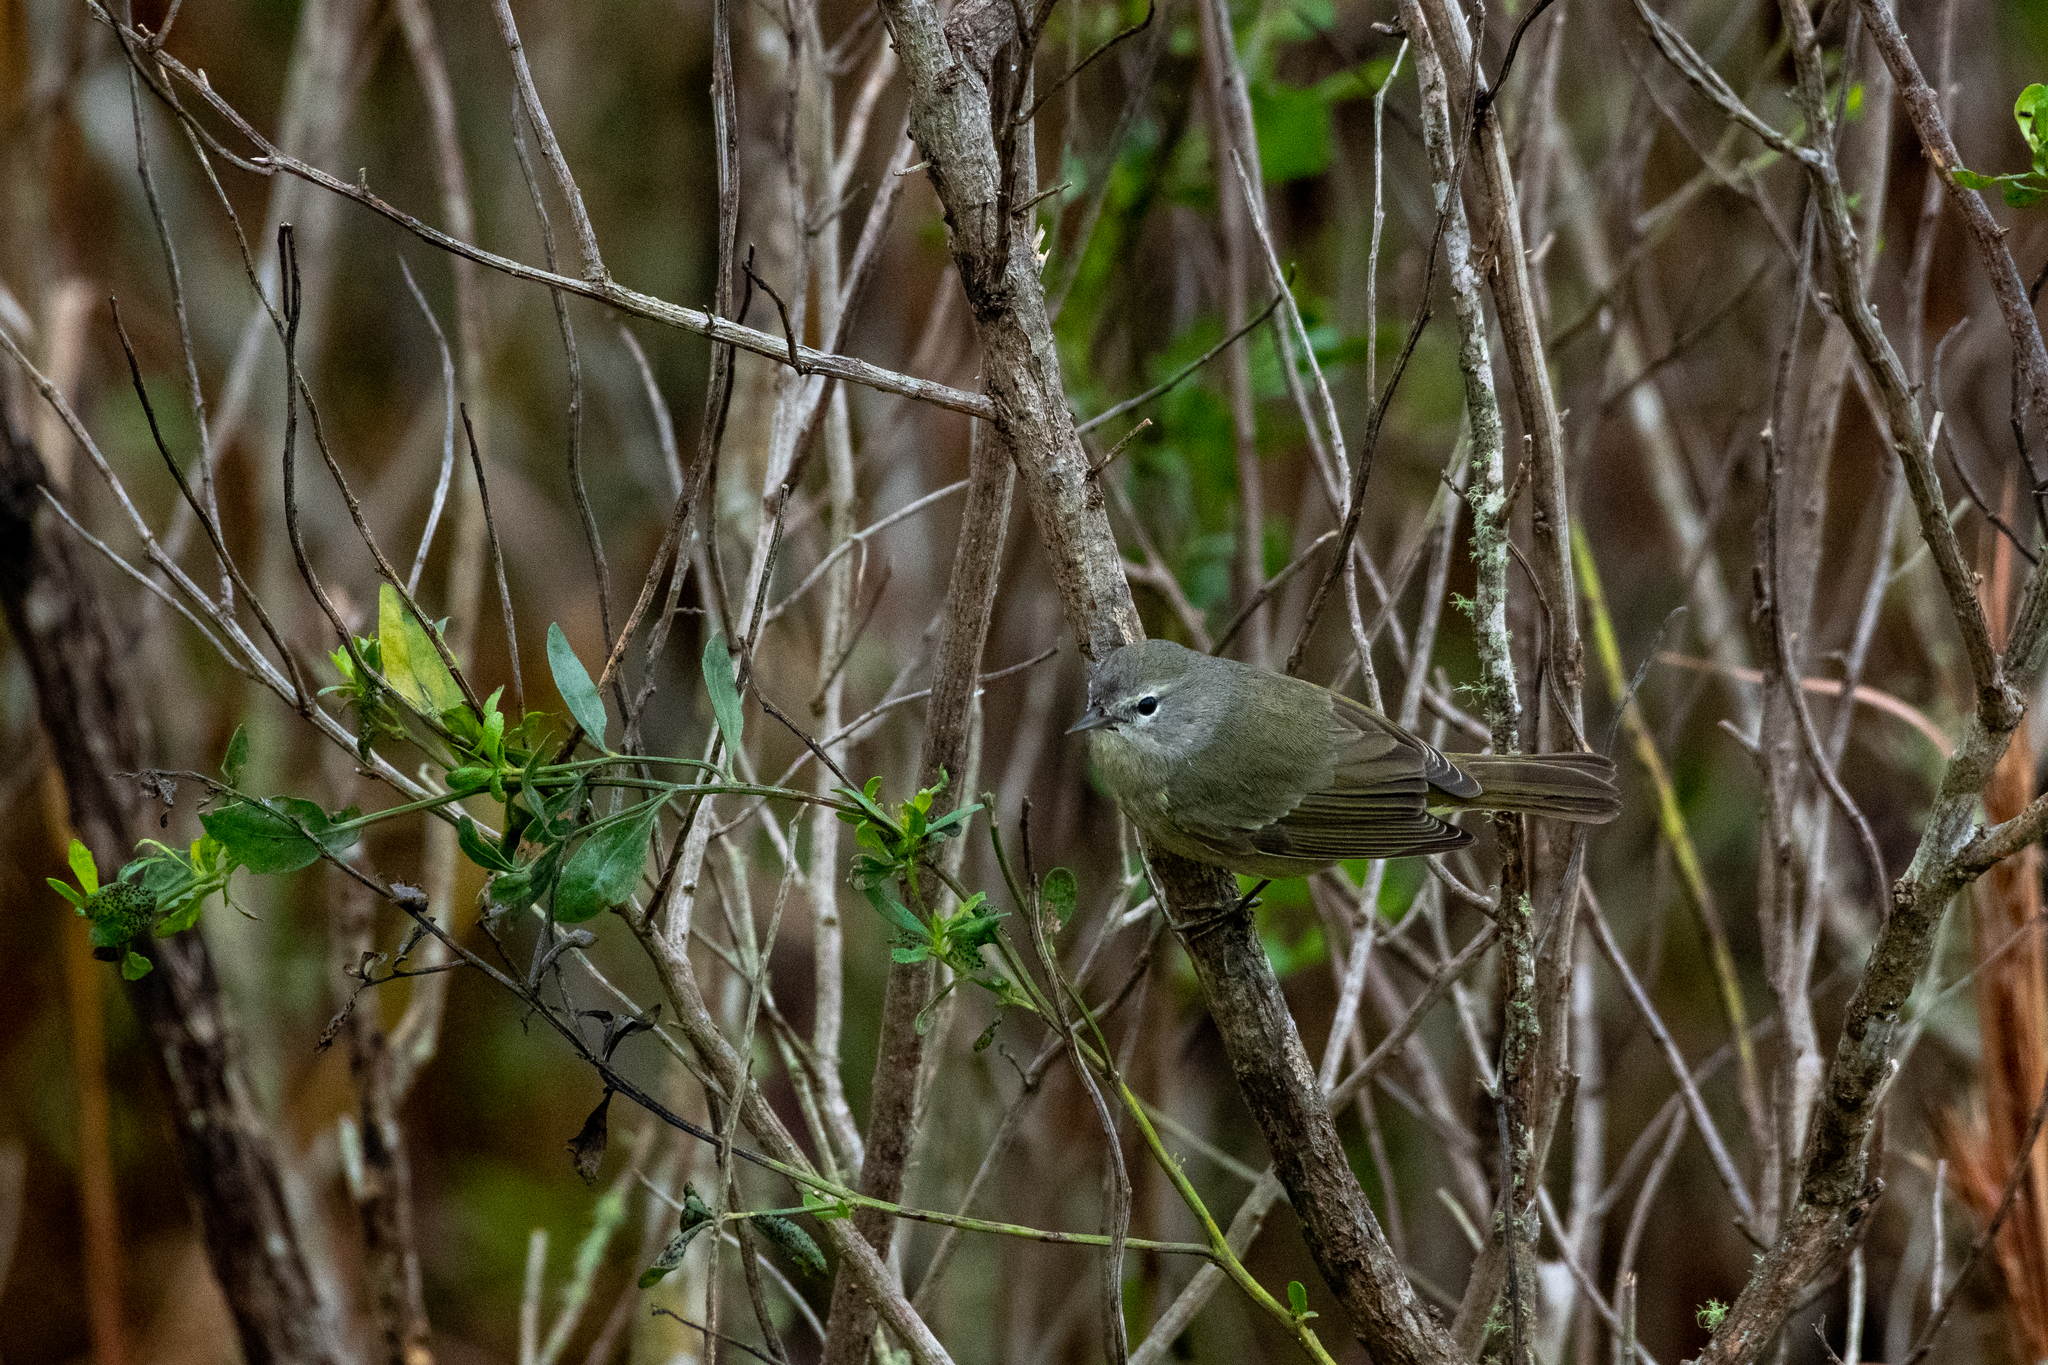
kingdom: Animalia
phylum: Chordata
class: Aves
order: Passeriformes
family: Parulidae
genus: Leiothlypis
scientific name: Leiothlypis celata
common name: Orange-crowned warbler
